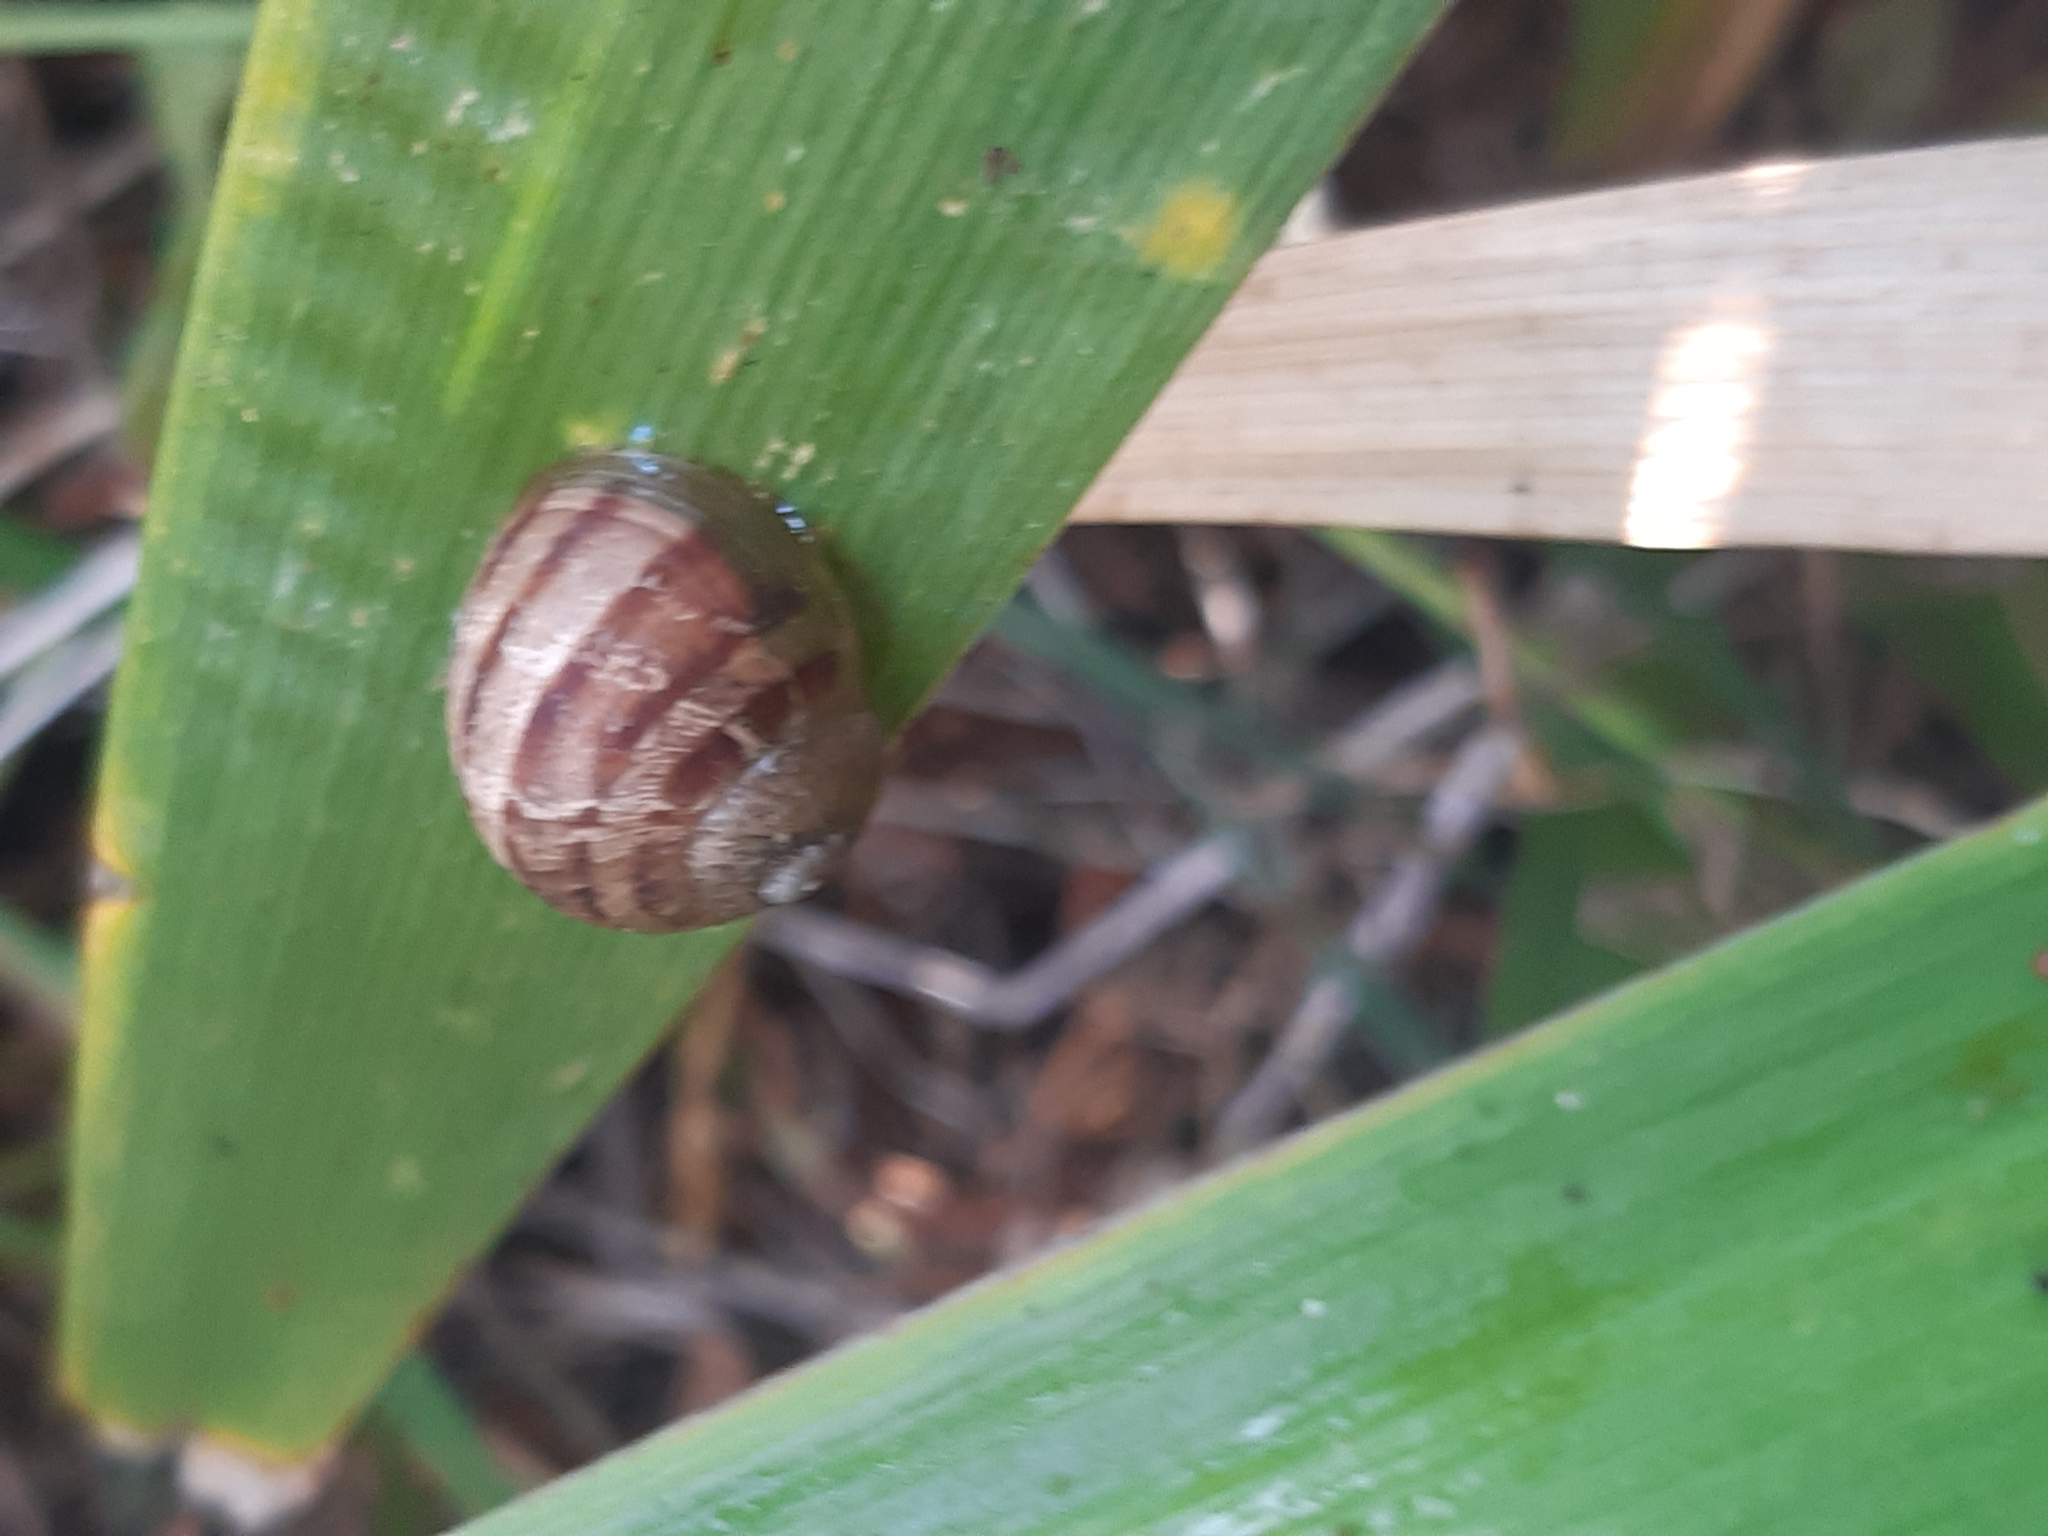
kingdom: Animalia
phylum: Mollusca
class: Gastropoda
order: Stylommatophora
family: Helicidae
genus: Cornu
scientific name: Cornu aspersum
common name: Brown garden snail
